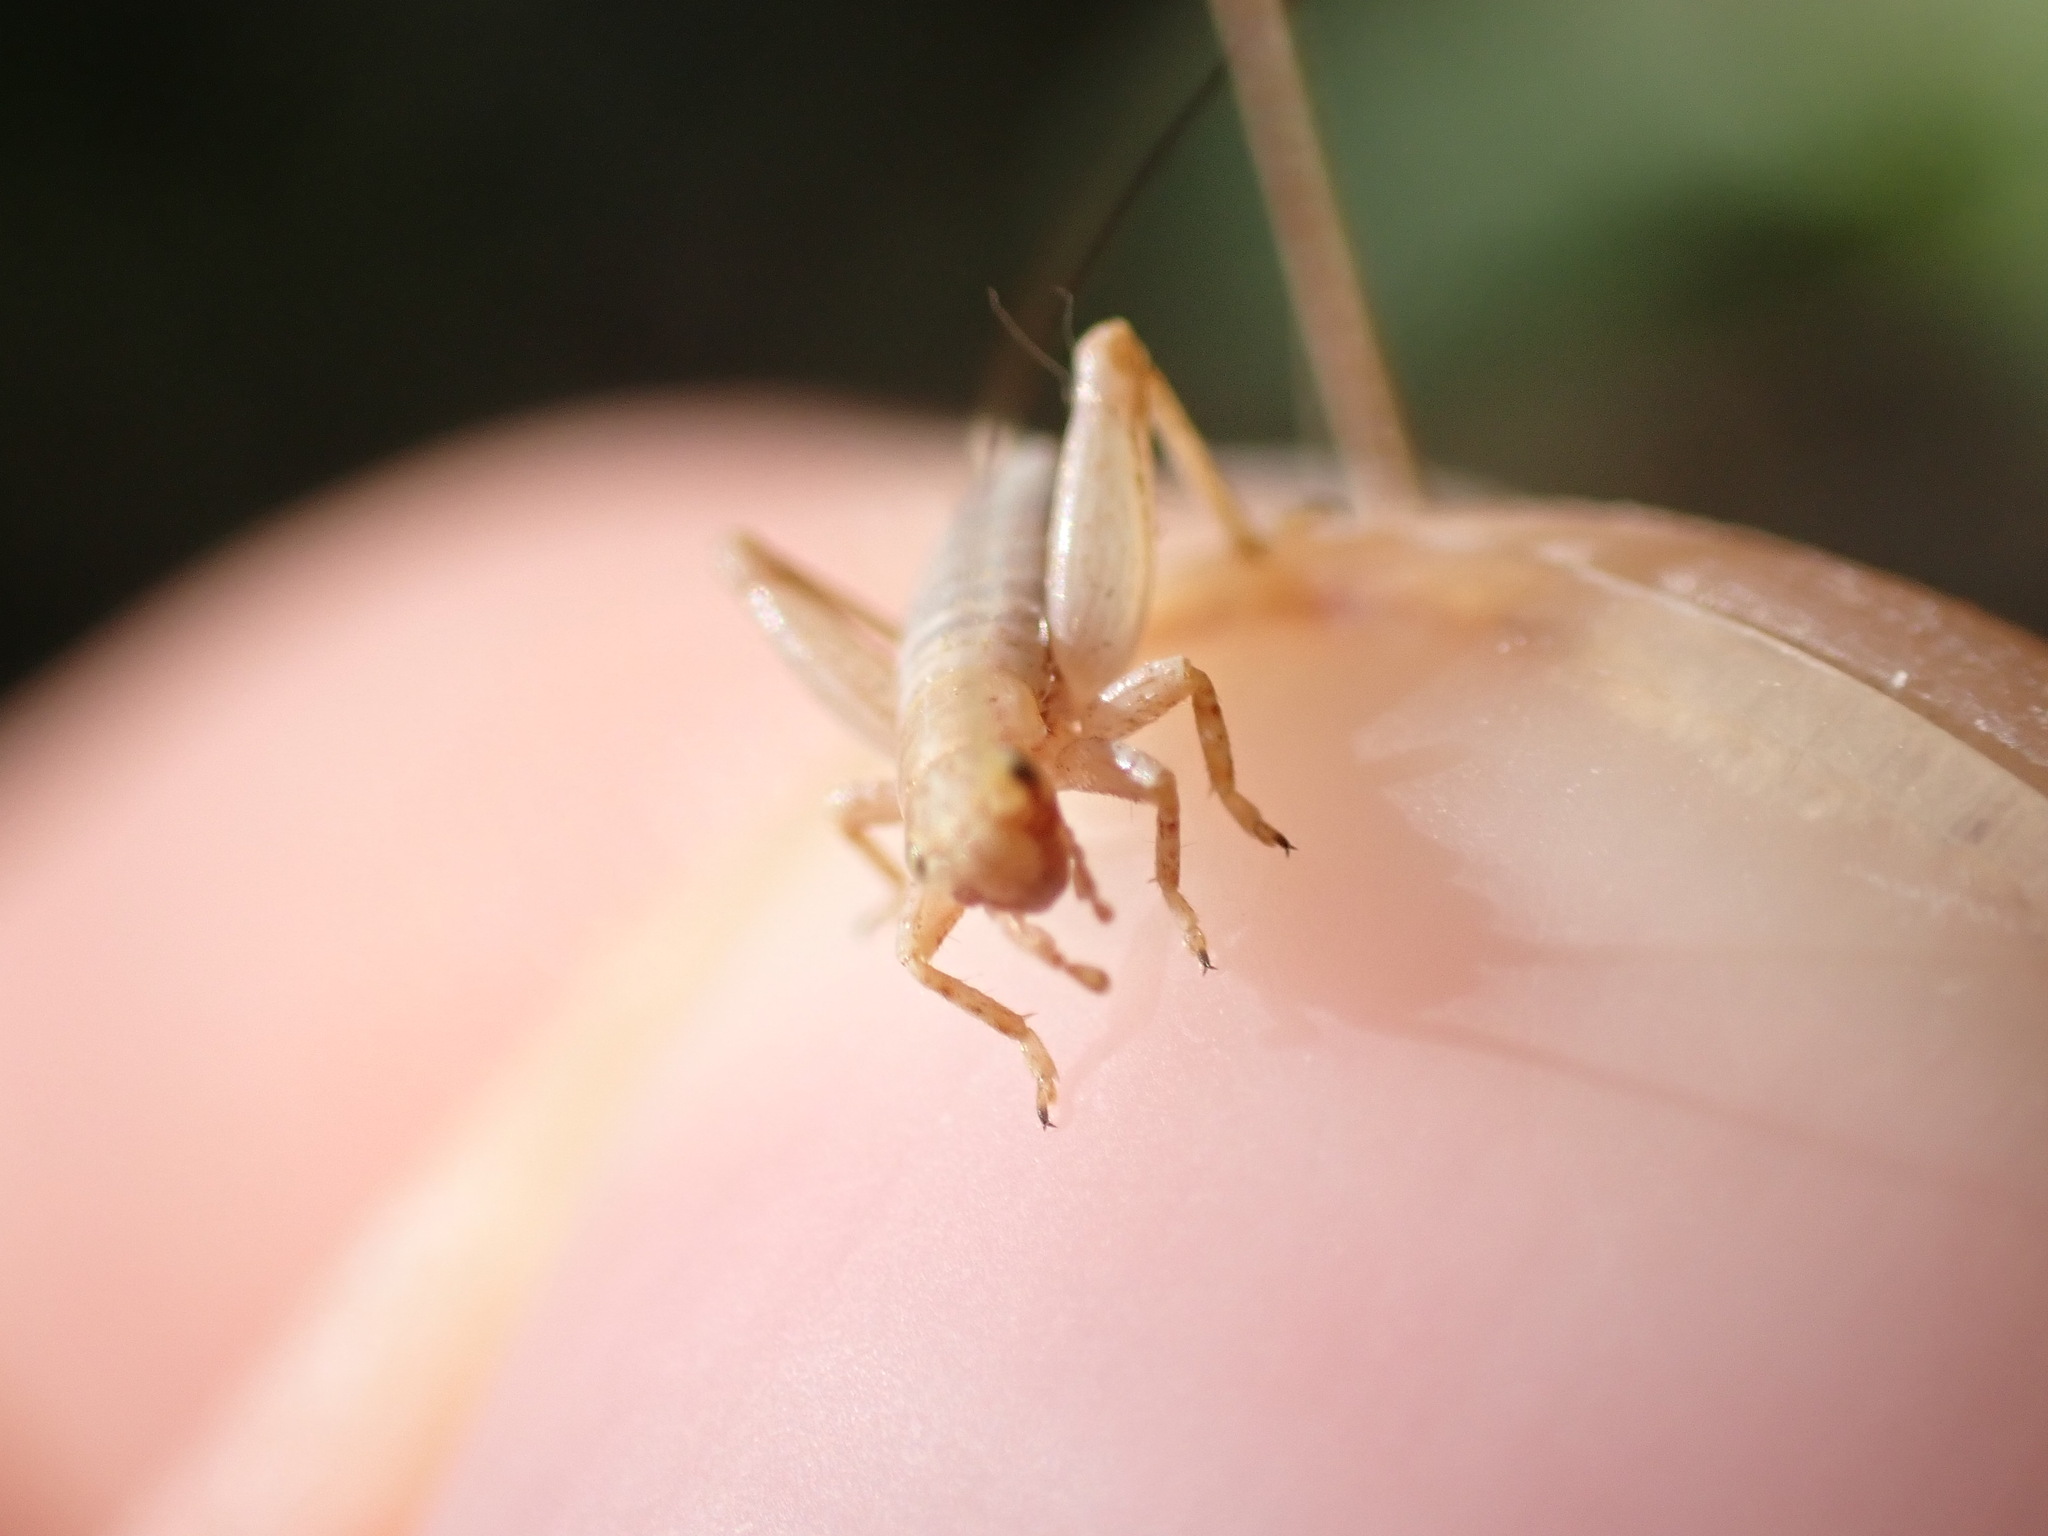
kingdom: Animalia
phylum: Arthropoda
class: Insecta
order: Orthoptera
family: Mogoplistidae
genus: Arachnocephalus
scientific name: Arachnocephalus vestitus
